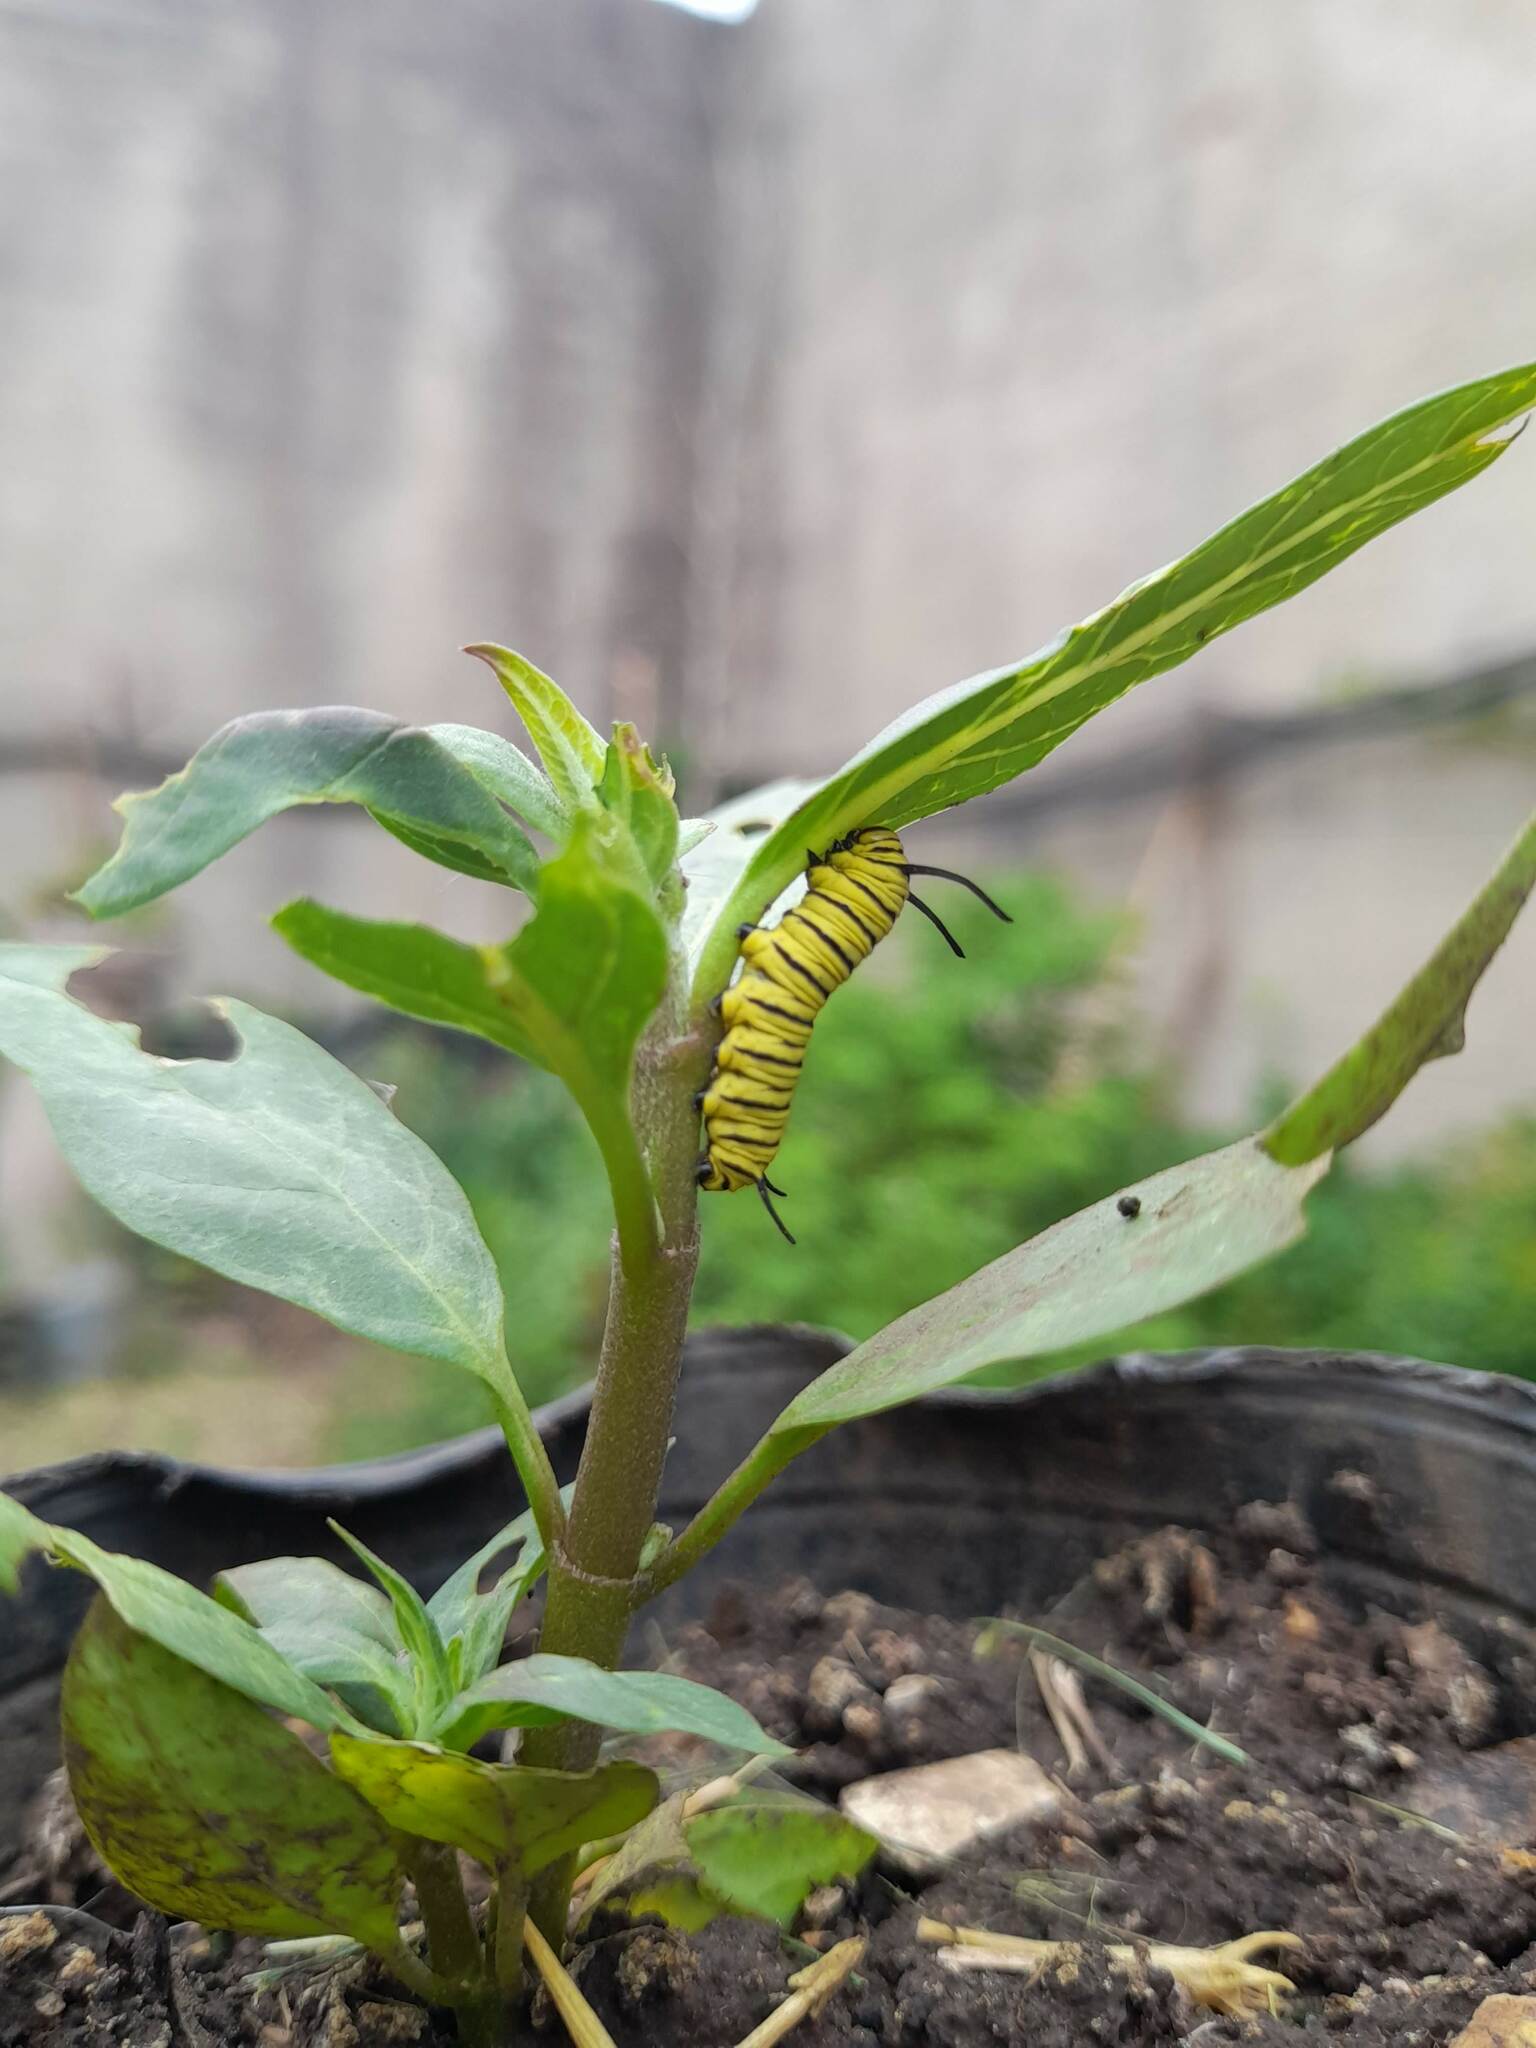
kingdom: Animalia
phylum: Arthropoda
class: Insecta
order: Lepidoptera
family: Nymphalidae
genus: Danaus
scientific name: Danaus erippus
